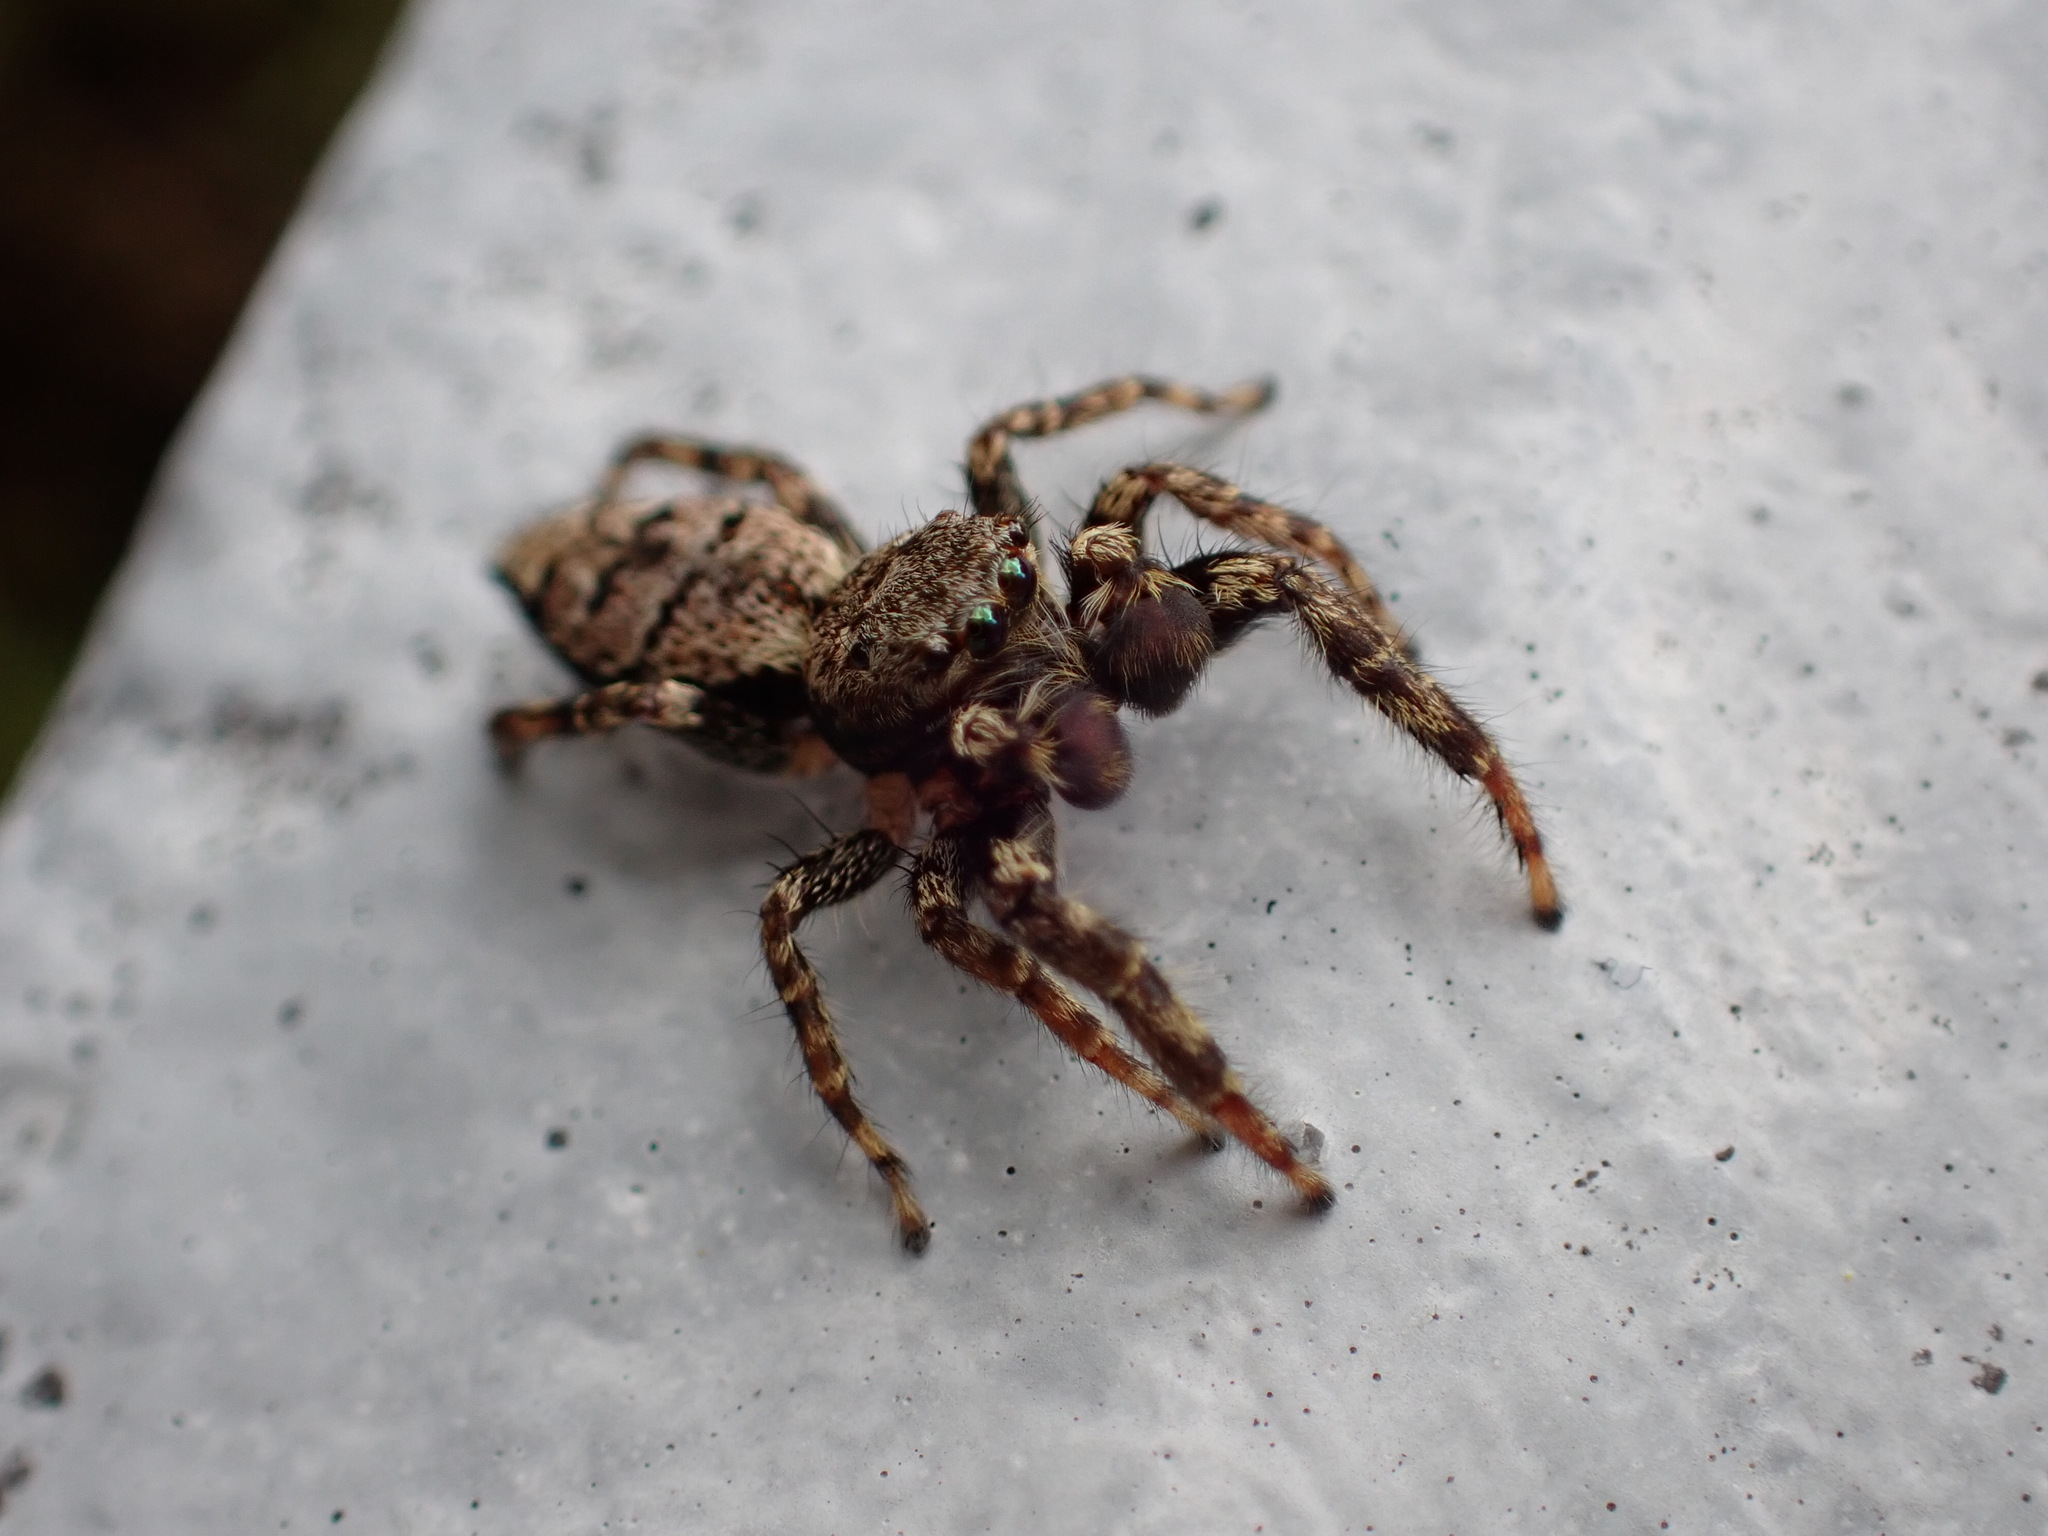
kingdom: Animalia
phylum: Arthropoda
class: Arachnida
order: Araneae
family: Salticidae
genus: Marpissa
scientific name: Marpissa muscosa
